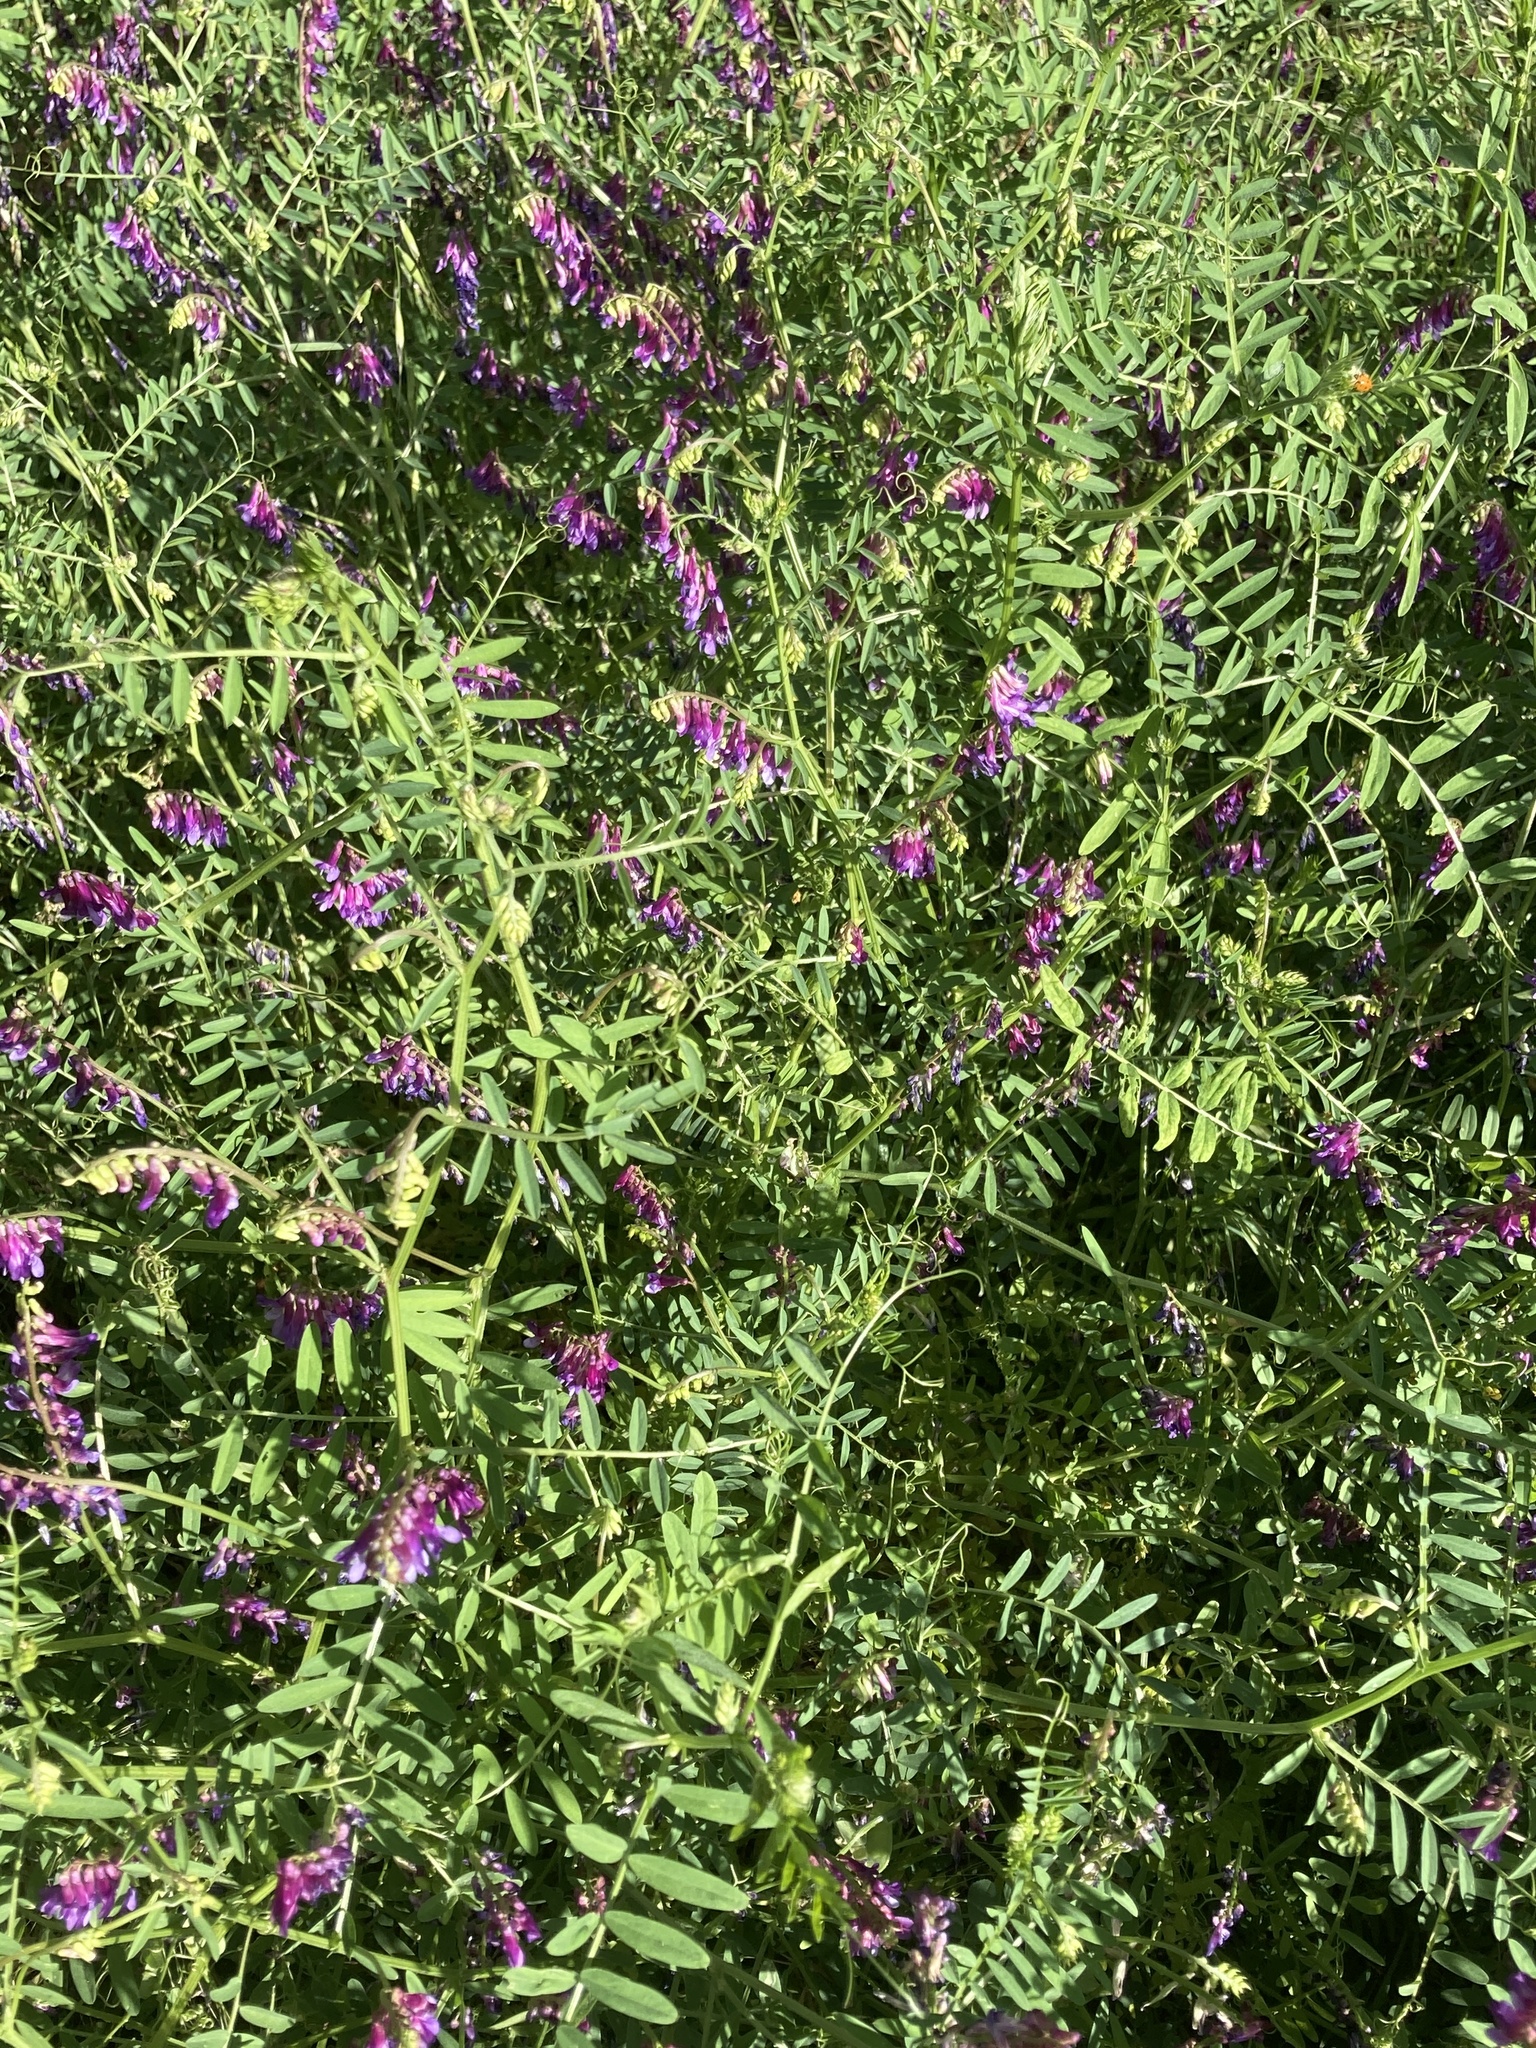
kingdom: Plantae
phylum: Tracheophyta
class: Magnoliopsida
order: Fabales
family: Fabaceae
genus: Vicia
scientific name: Vicia villosa
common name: Fodder vetch
